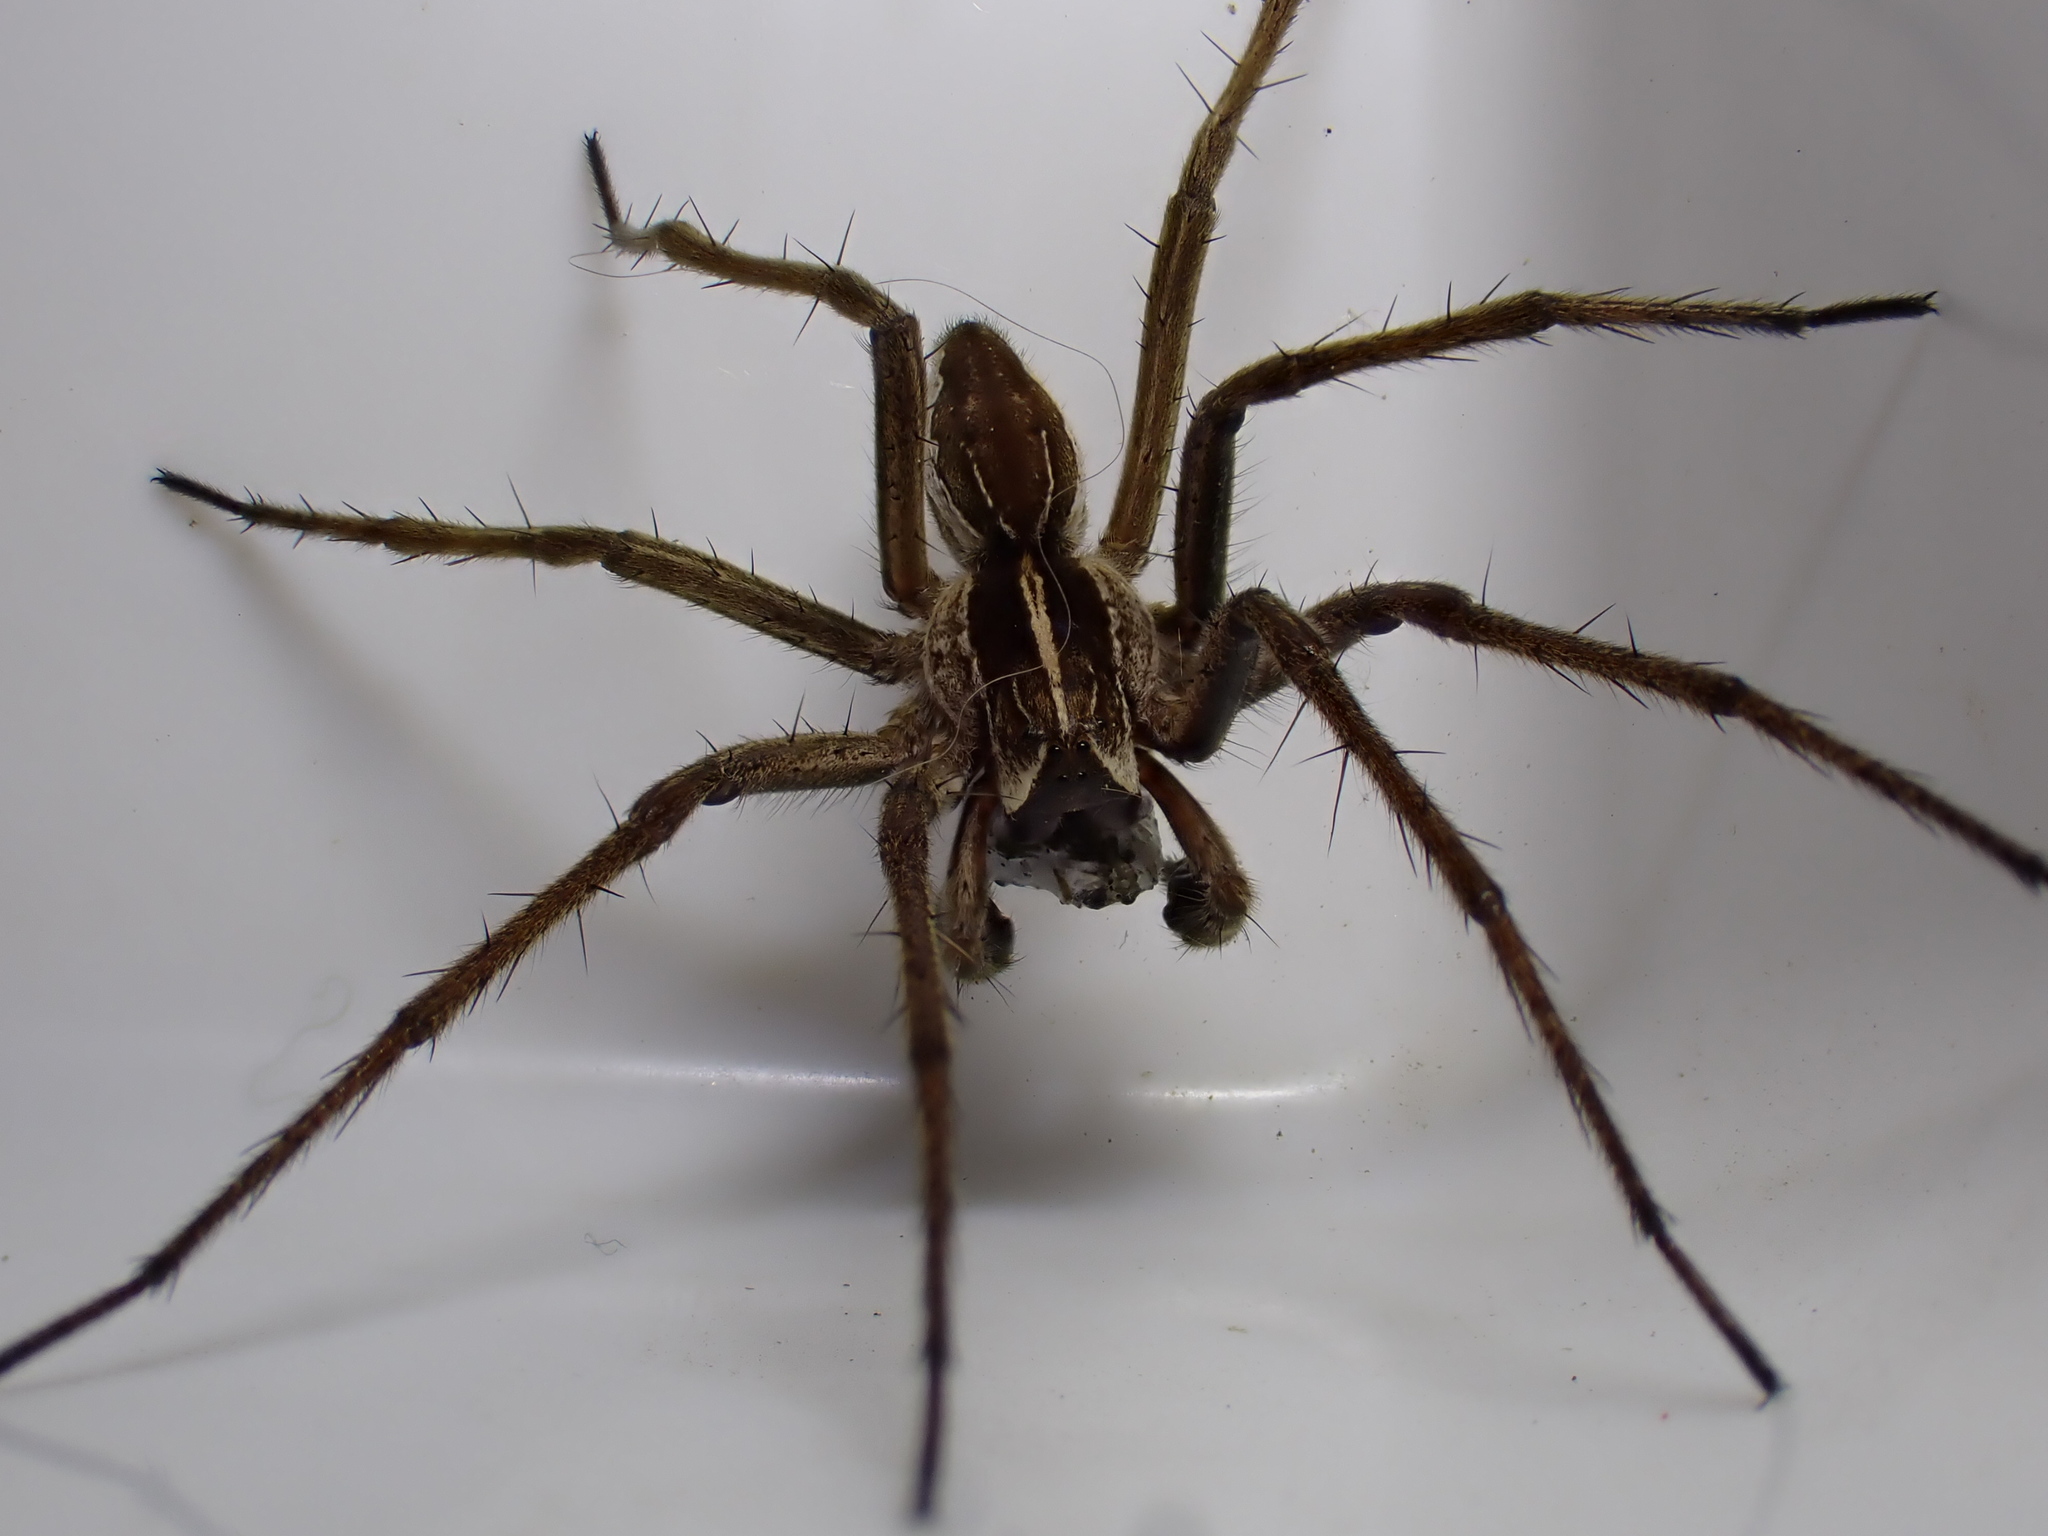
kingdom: Animalia
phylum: Arthropoda
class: Arachnida
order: Araneae
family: Pisauridae
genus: Pisaura
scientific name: Pisaura mirabilis
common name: Tent spider
